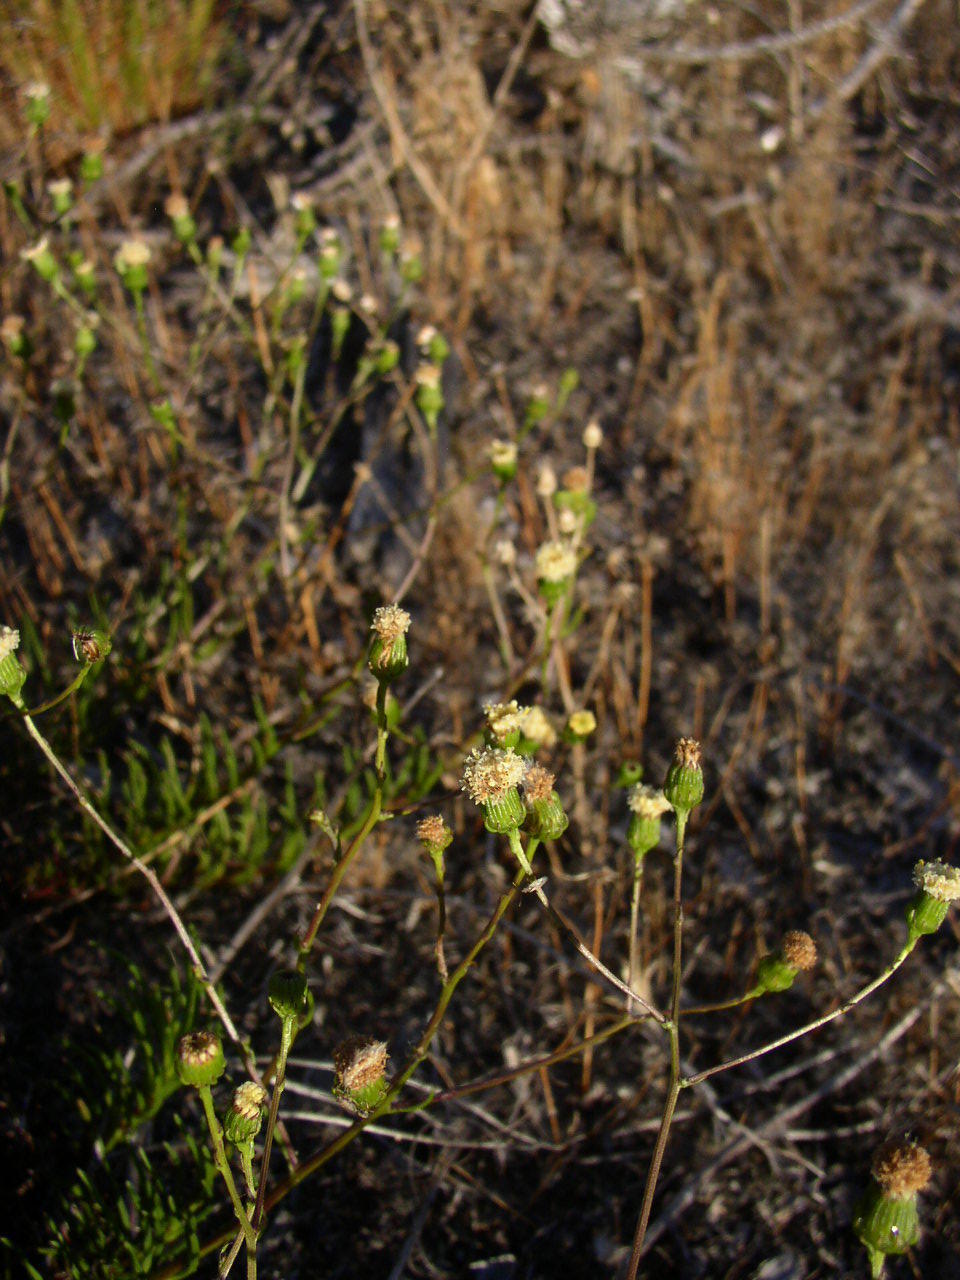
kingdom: Plantae
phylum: Tracheophyta
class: Magnoliopsida
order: Asterales
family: Asteraceae
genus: Senecio
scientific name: Senecio paniculatus
